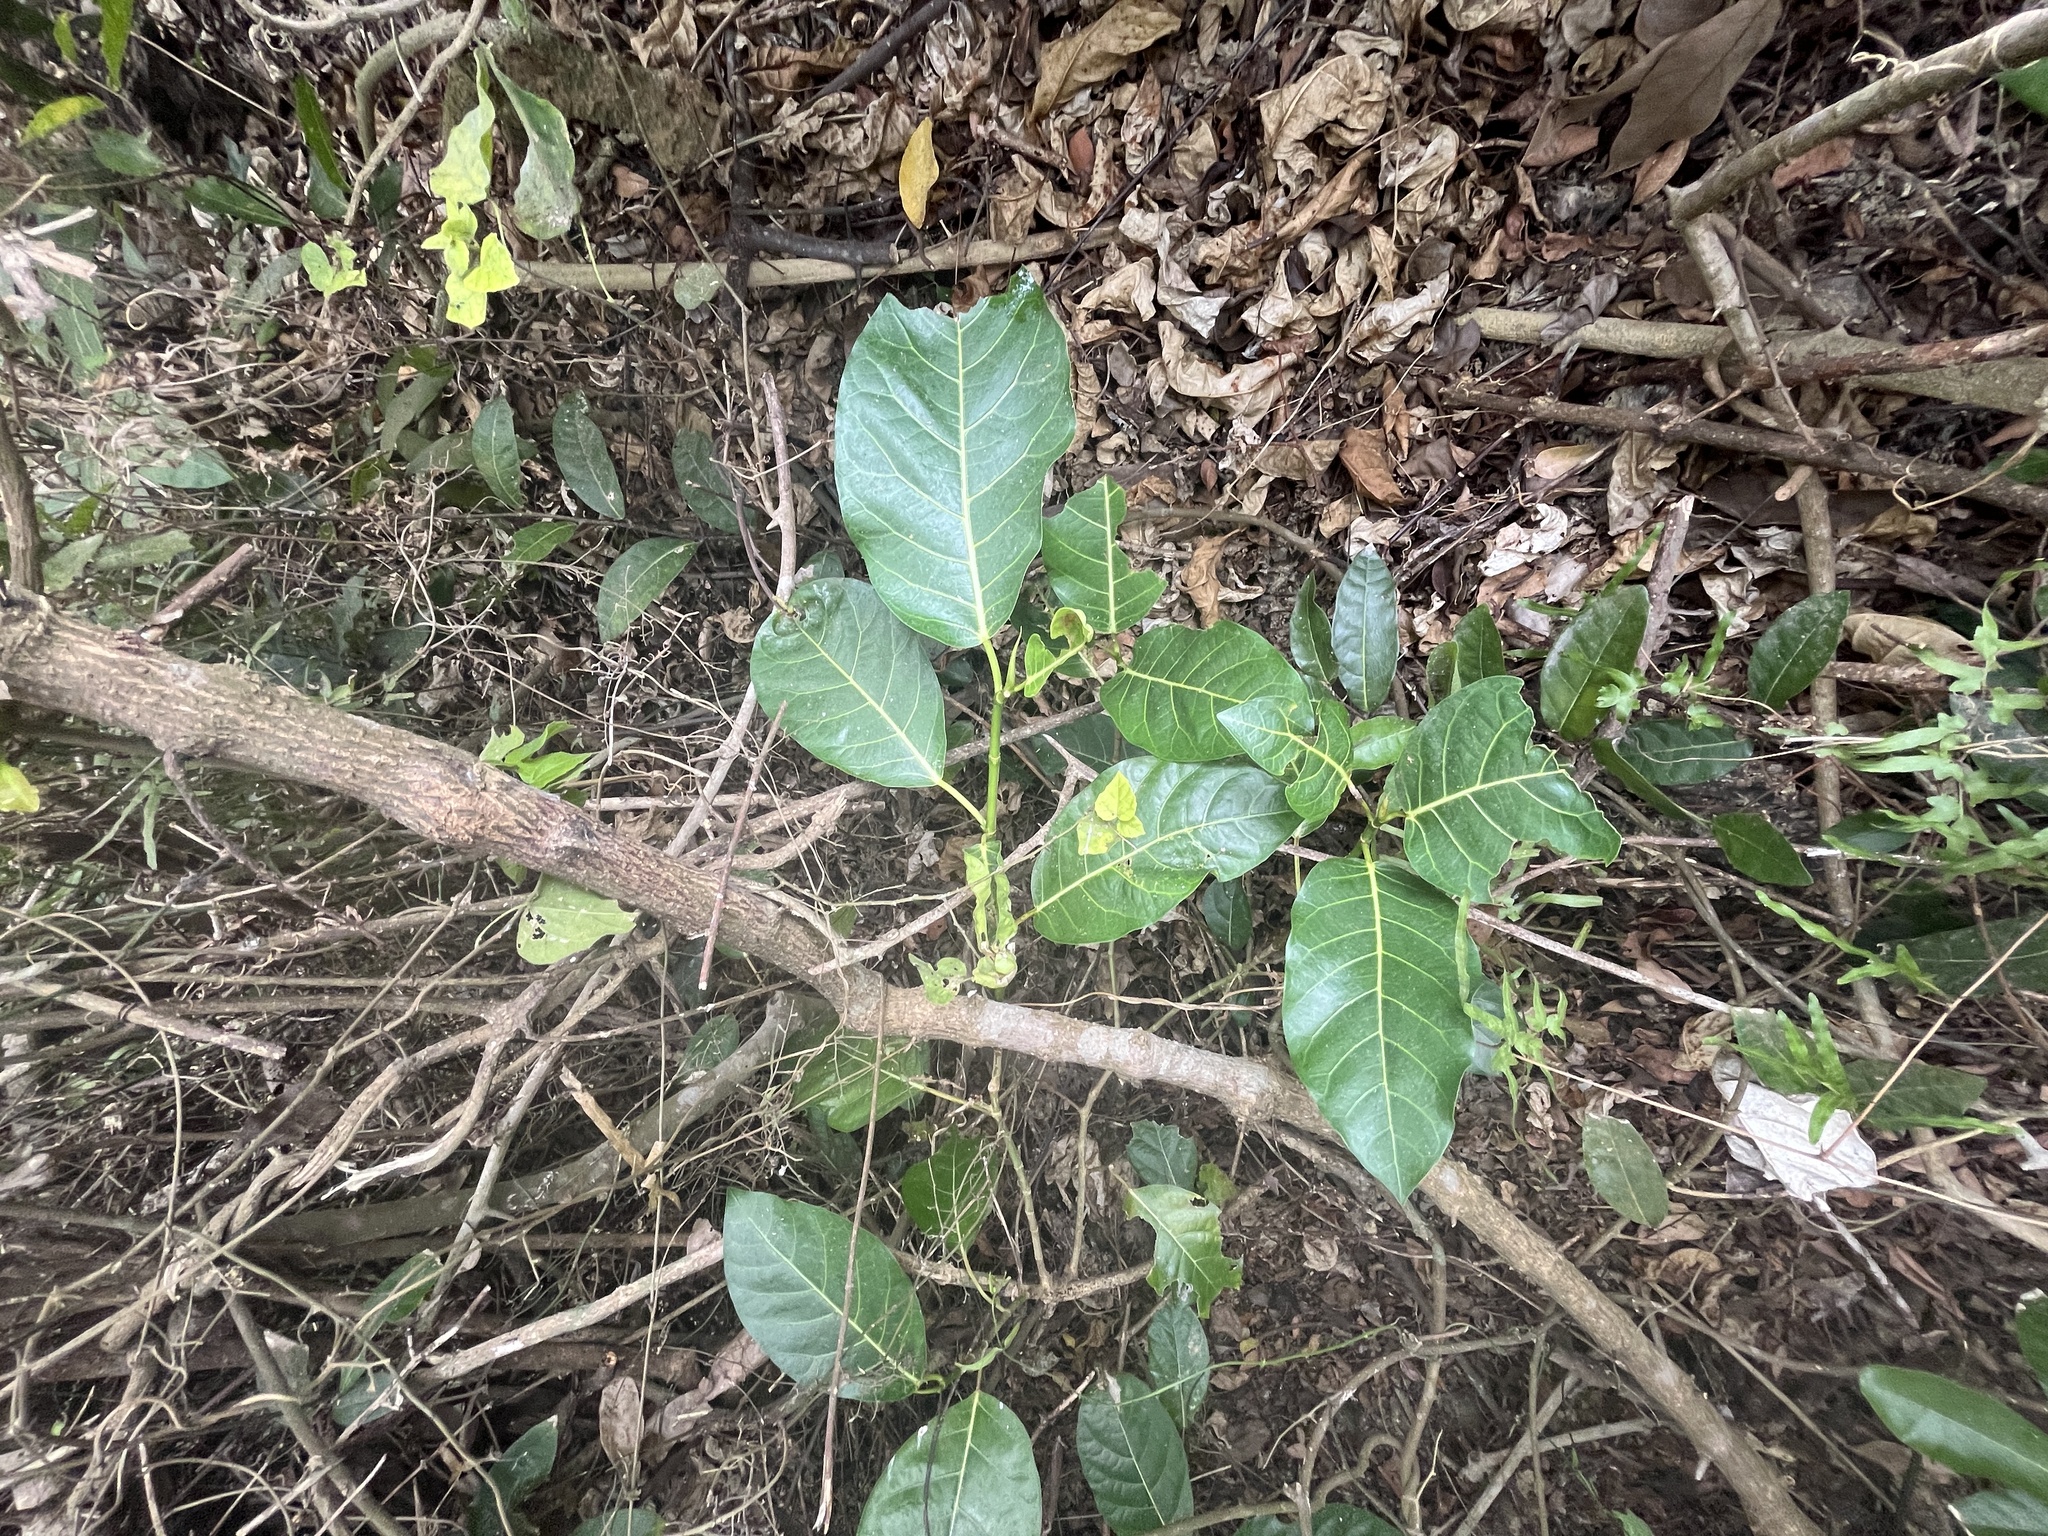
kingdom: Plantae
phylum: Tracheophyta
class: Magnoliopsida
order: Rosales
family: Moraceae
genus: Ficus
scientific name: Ficus septica
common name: Septic fig
